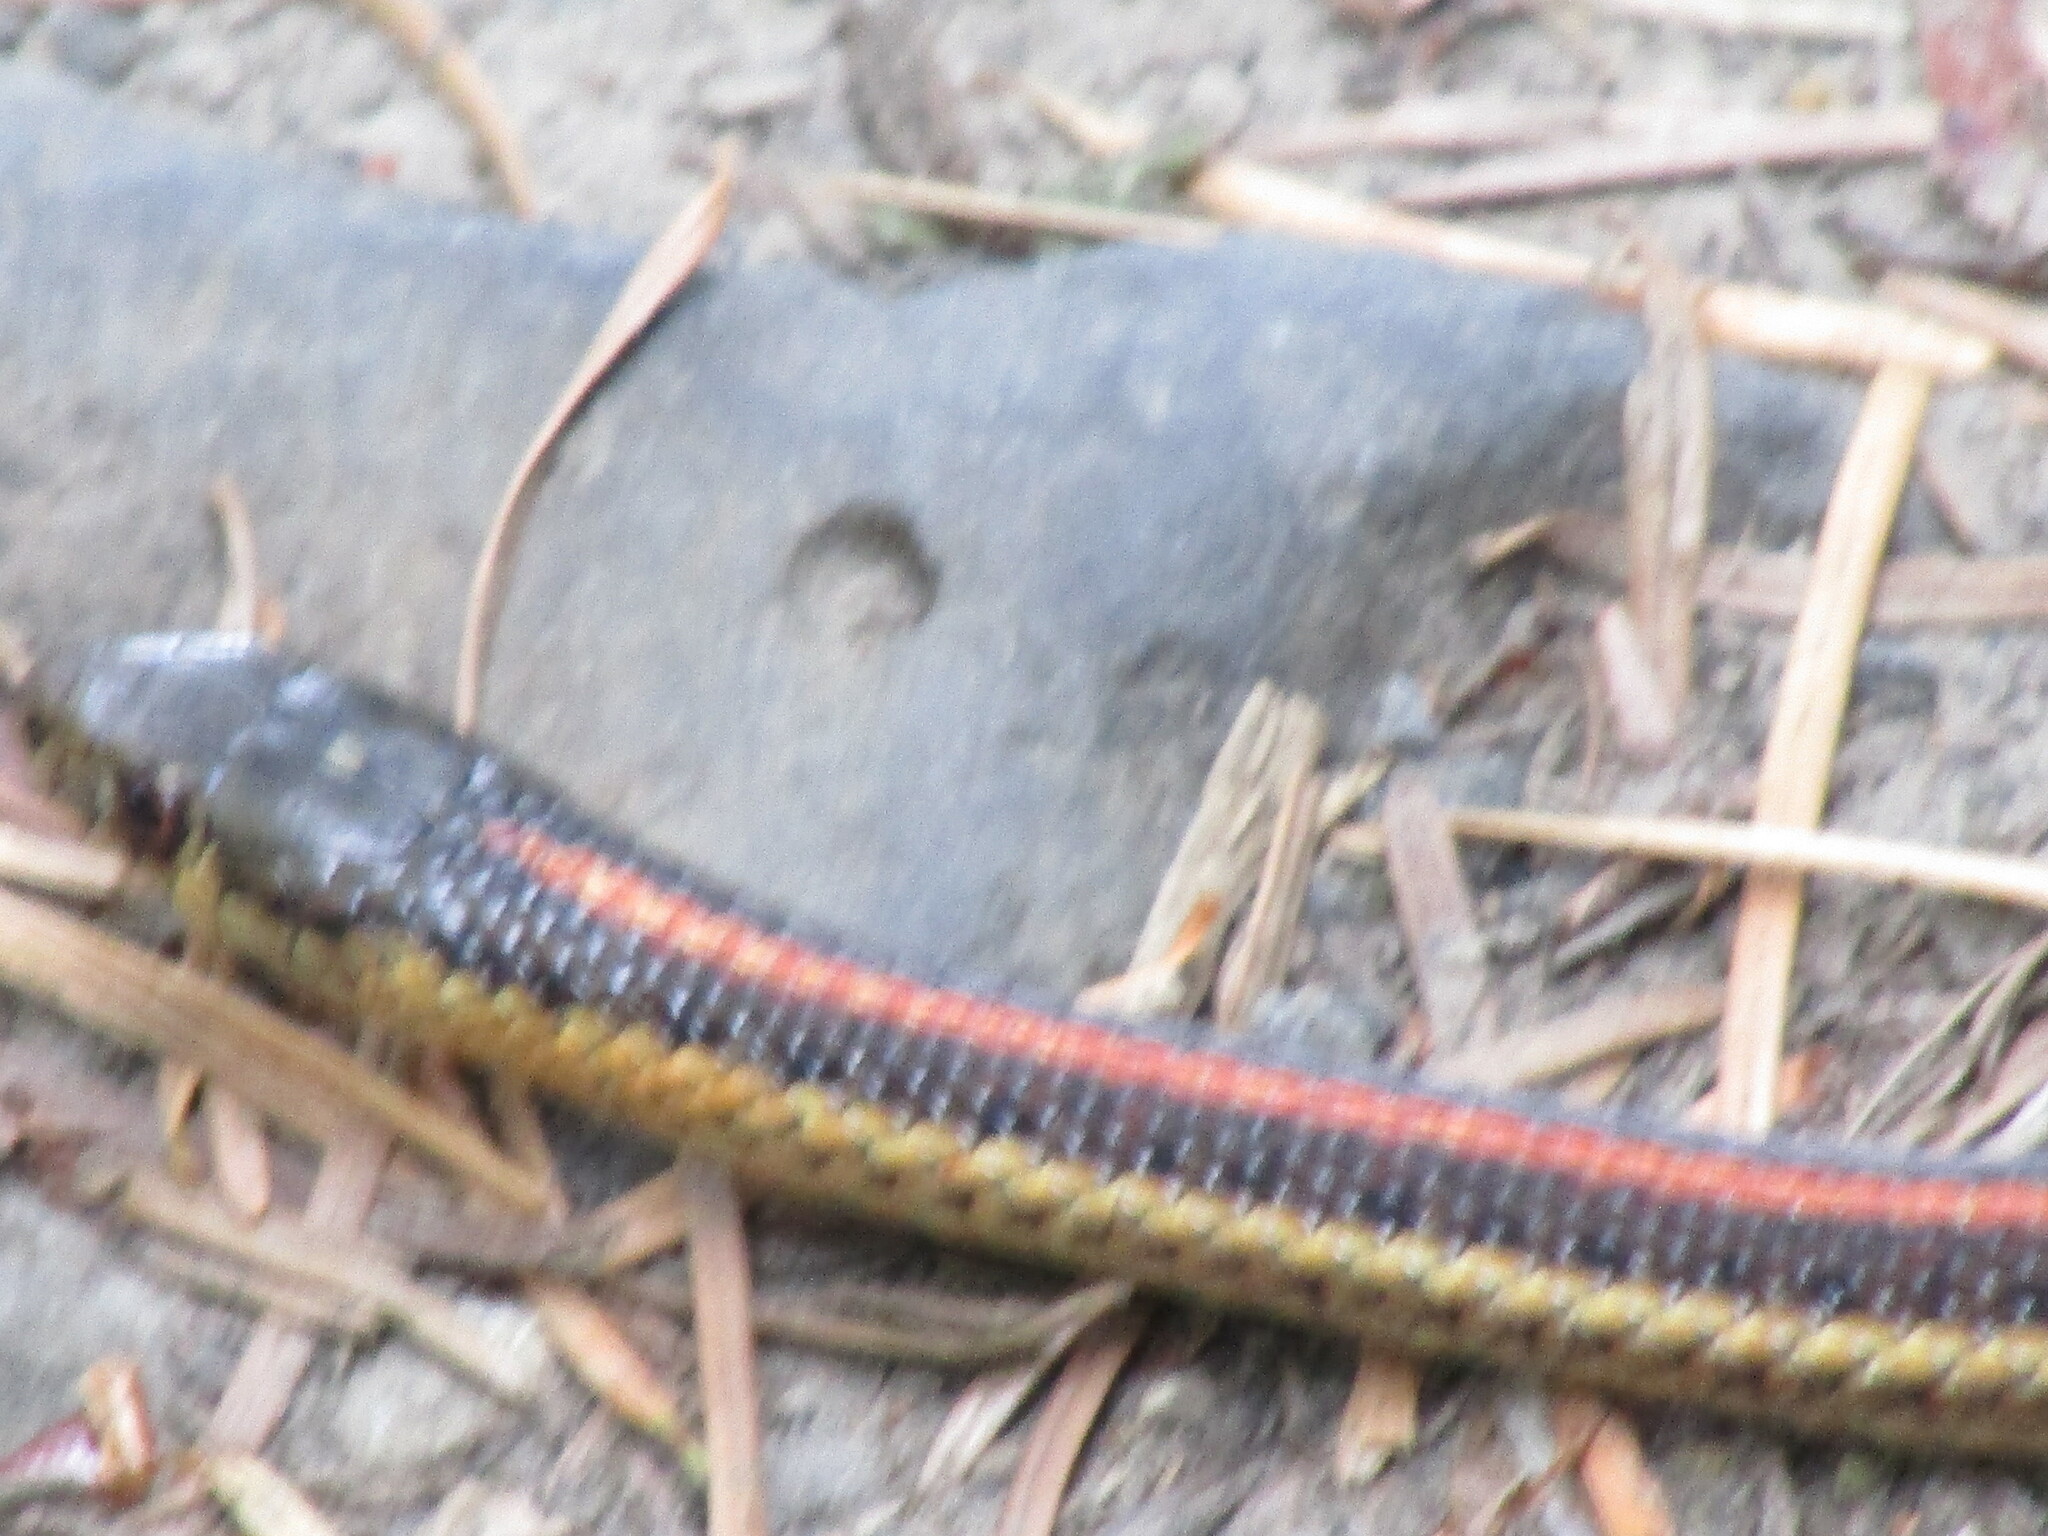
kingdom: Animalia
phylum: Chordata
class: Squamata
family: Colubridae
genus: Thamnophis
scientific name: Thamnophis ordinoides
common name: Northwestern garter snake
